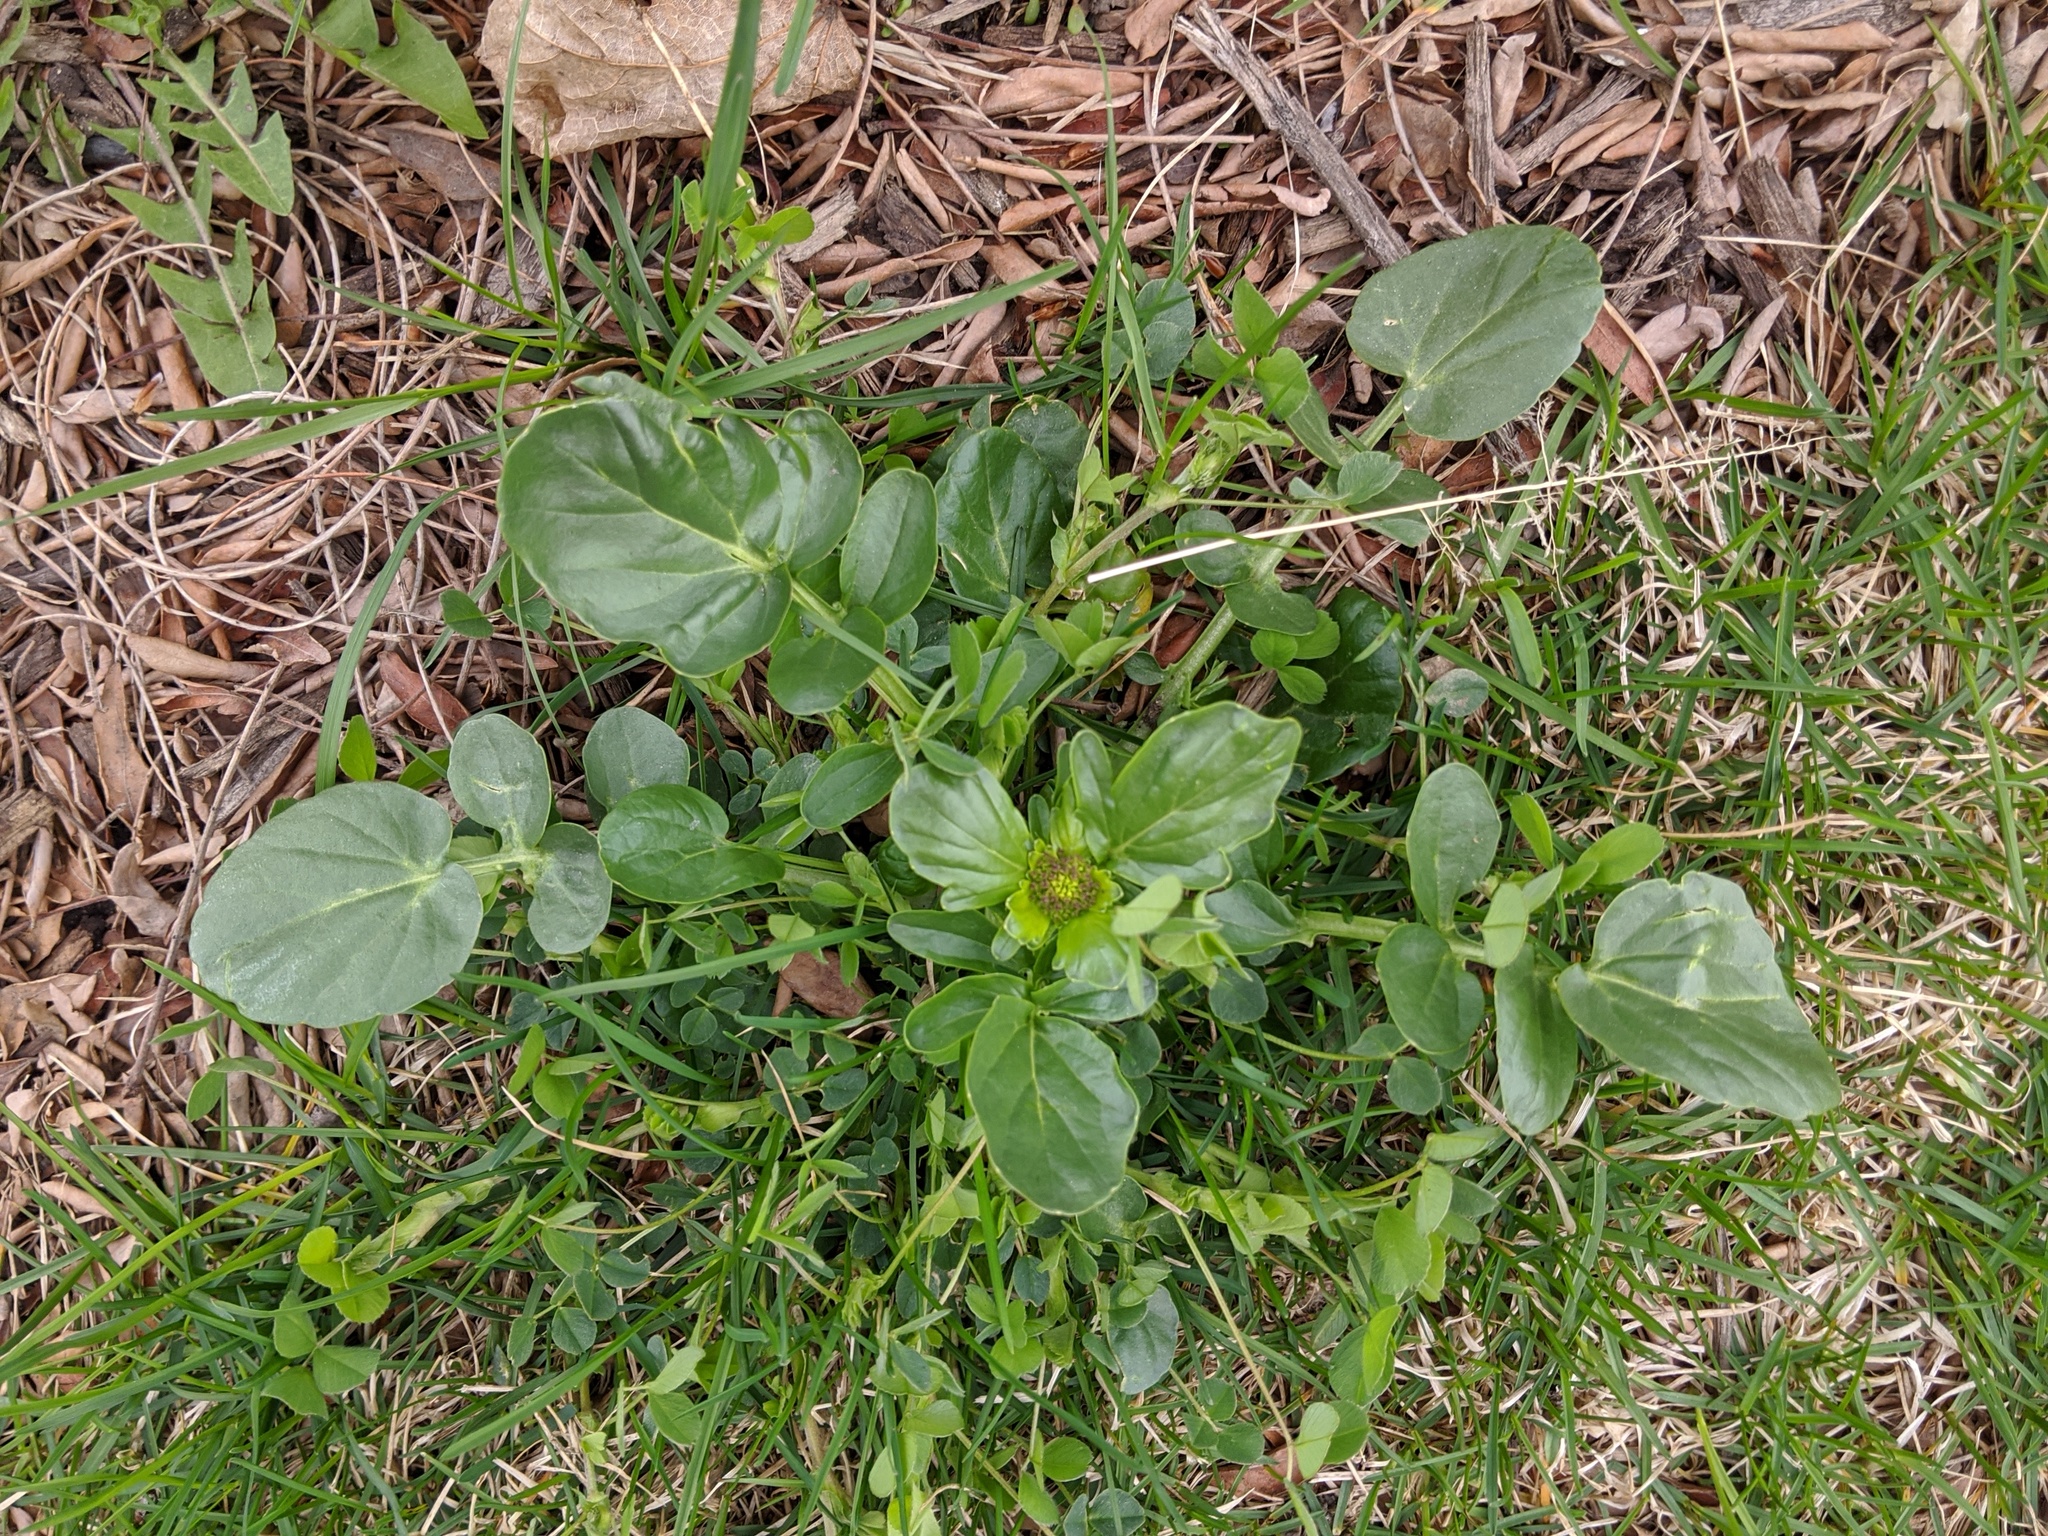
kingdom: Plantae
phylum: Tracheophyta
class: Magnoliopsida
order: Brassicales
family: Brassicaceae
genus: Barbarea
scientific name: Barbarea vulgaris
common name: Cressy-greens
